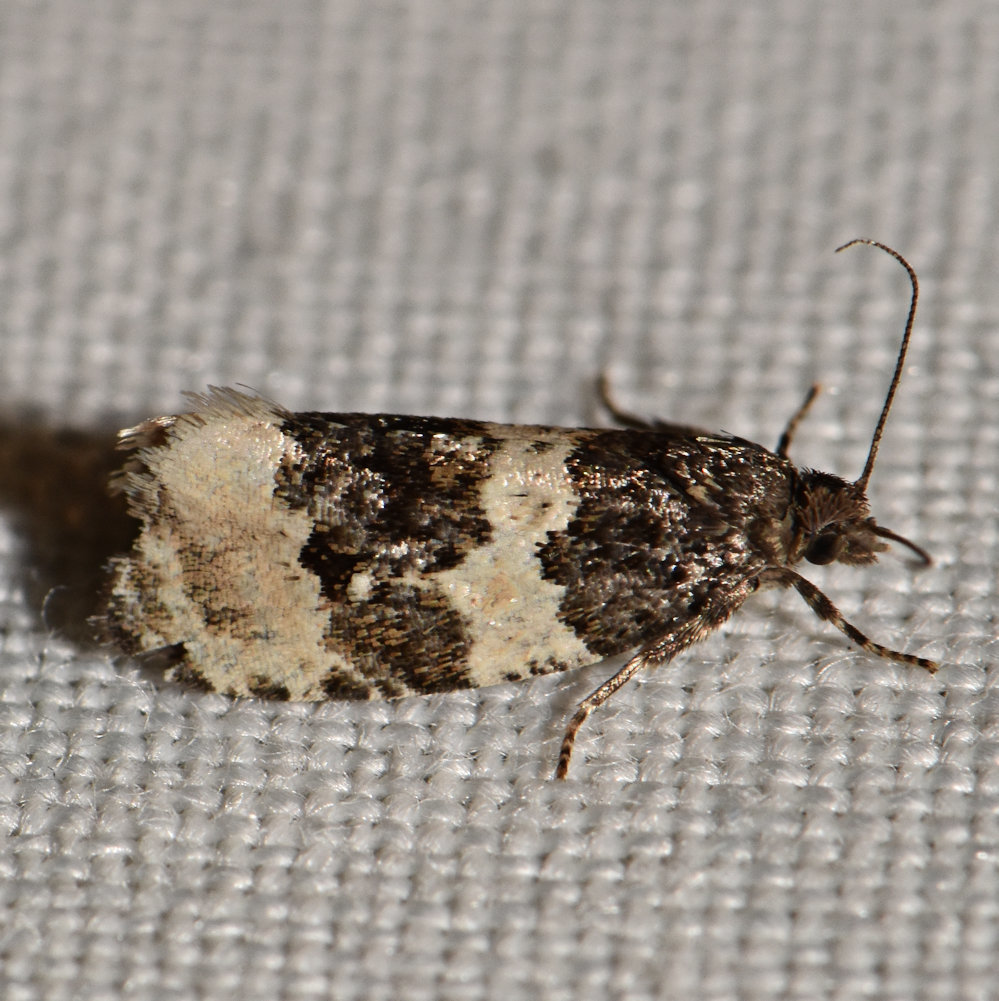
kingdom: Animalia
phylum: Arthropoda
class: Insecta
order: Lepidoptera
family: Tortricidae
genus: Olethreutes
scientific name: Olethreutes bipartitana
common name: Divided olethreutes moth
